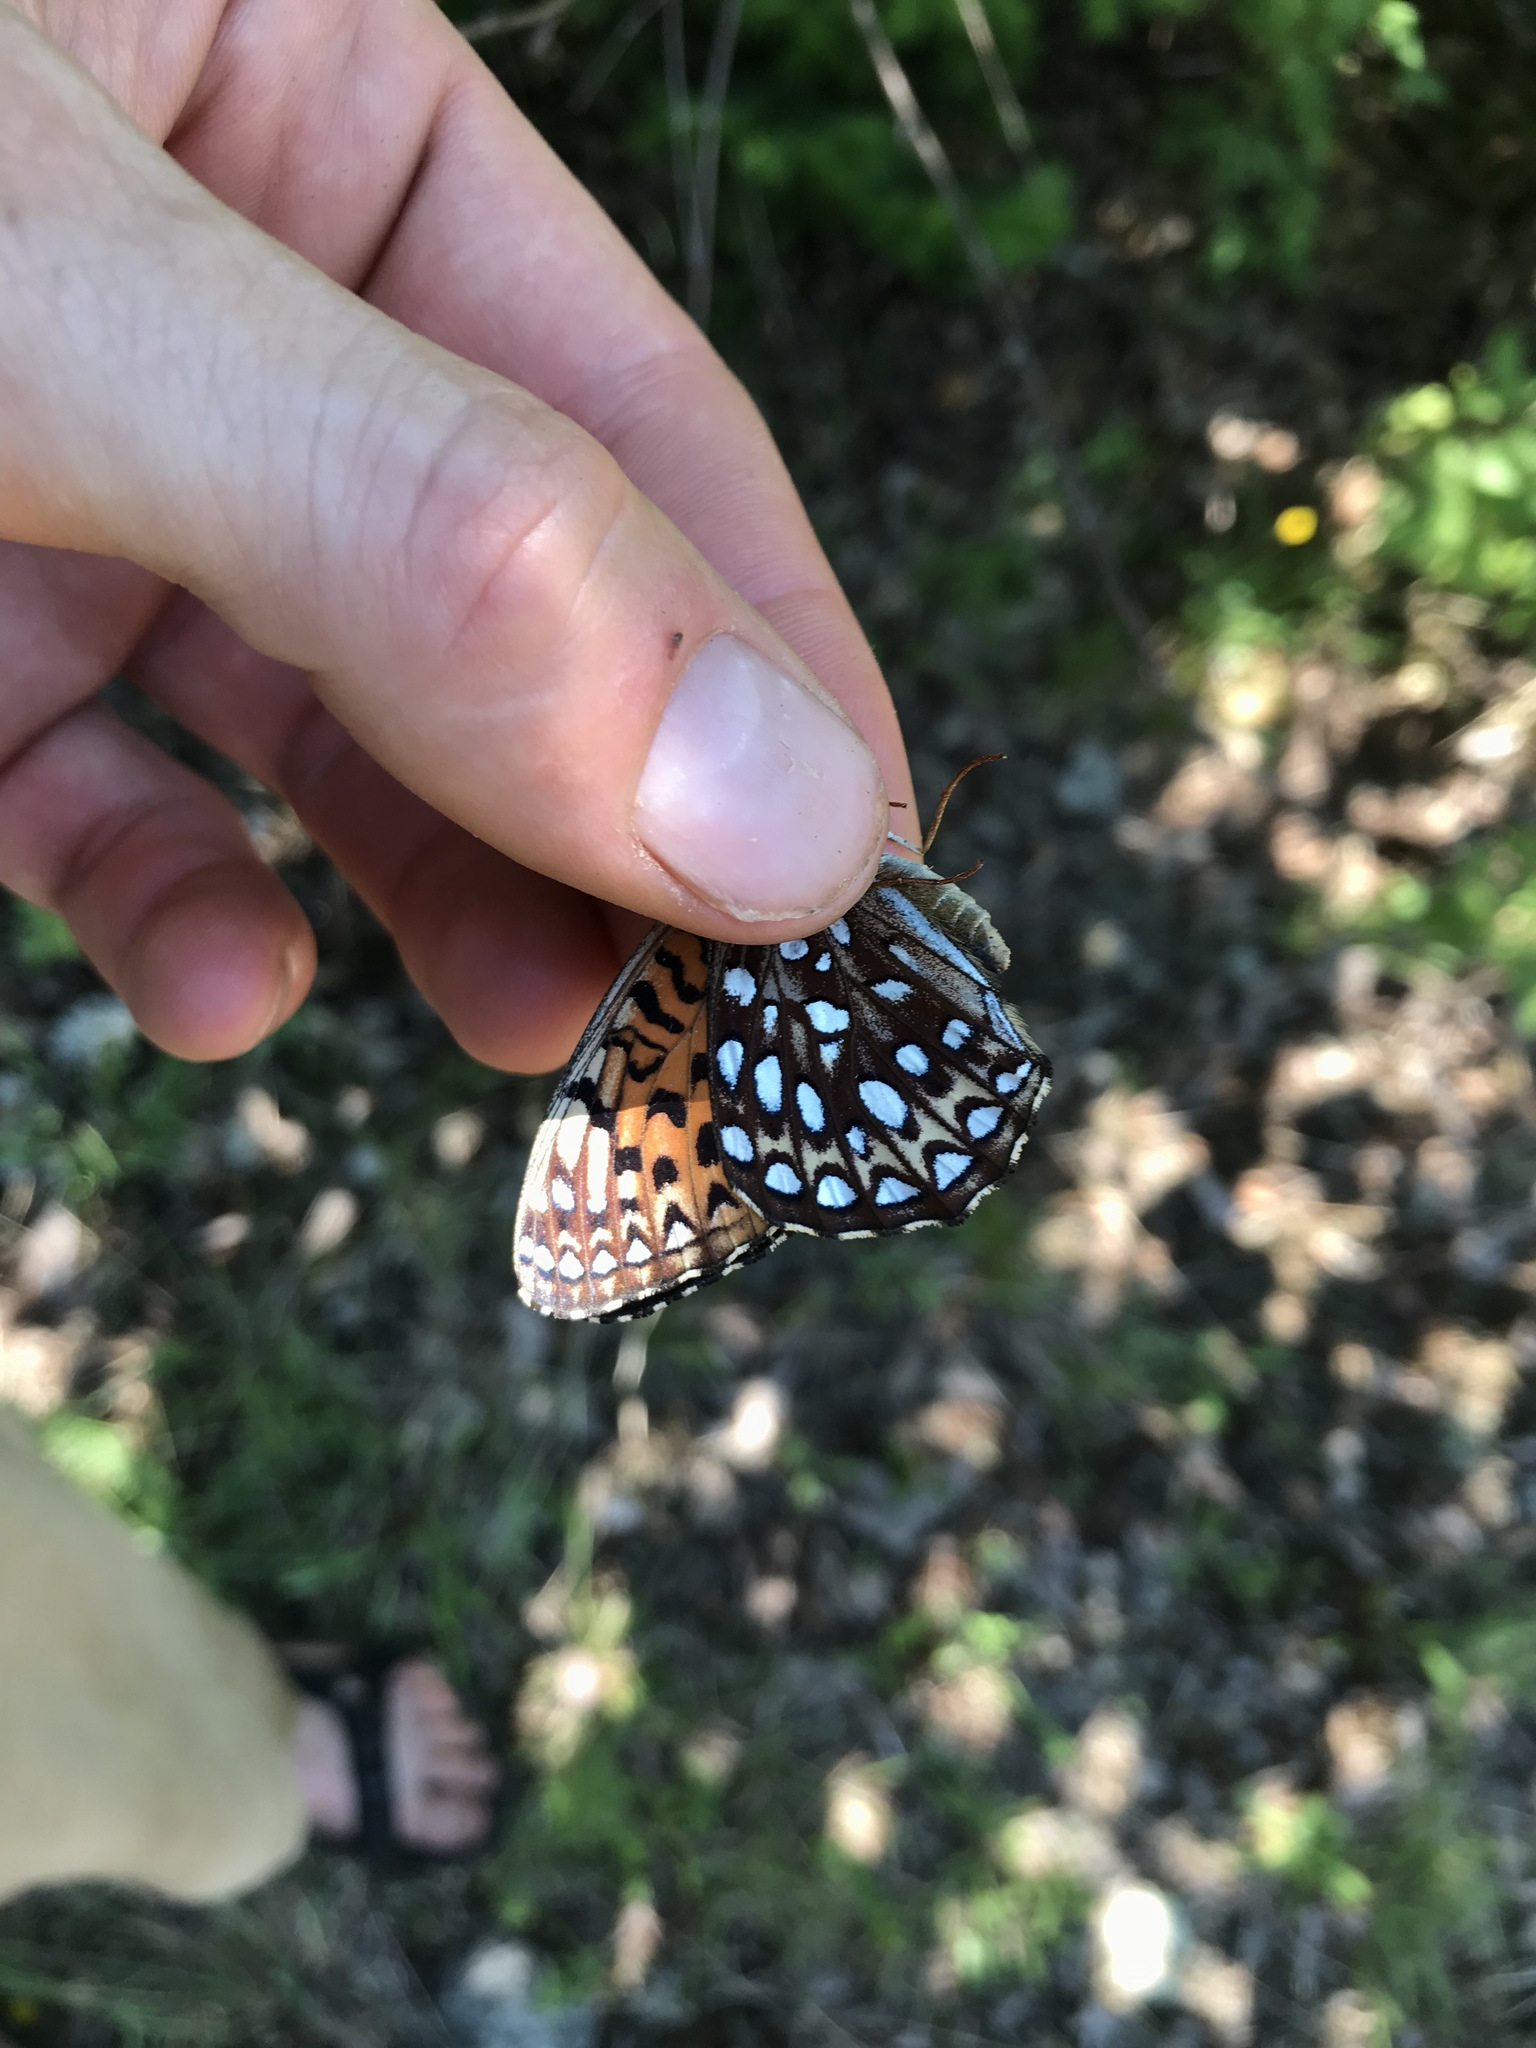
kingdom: Animalia
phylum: Arthropoda
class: Insecta
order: Lepidoptera
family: Nymphalidae
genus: Speyeria
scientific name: Speyeria atlantis
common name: Atlantis fritillary
